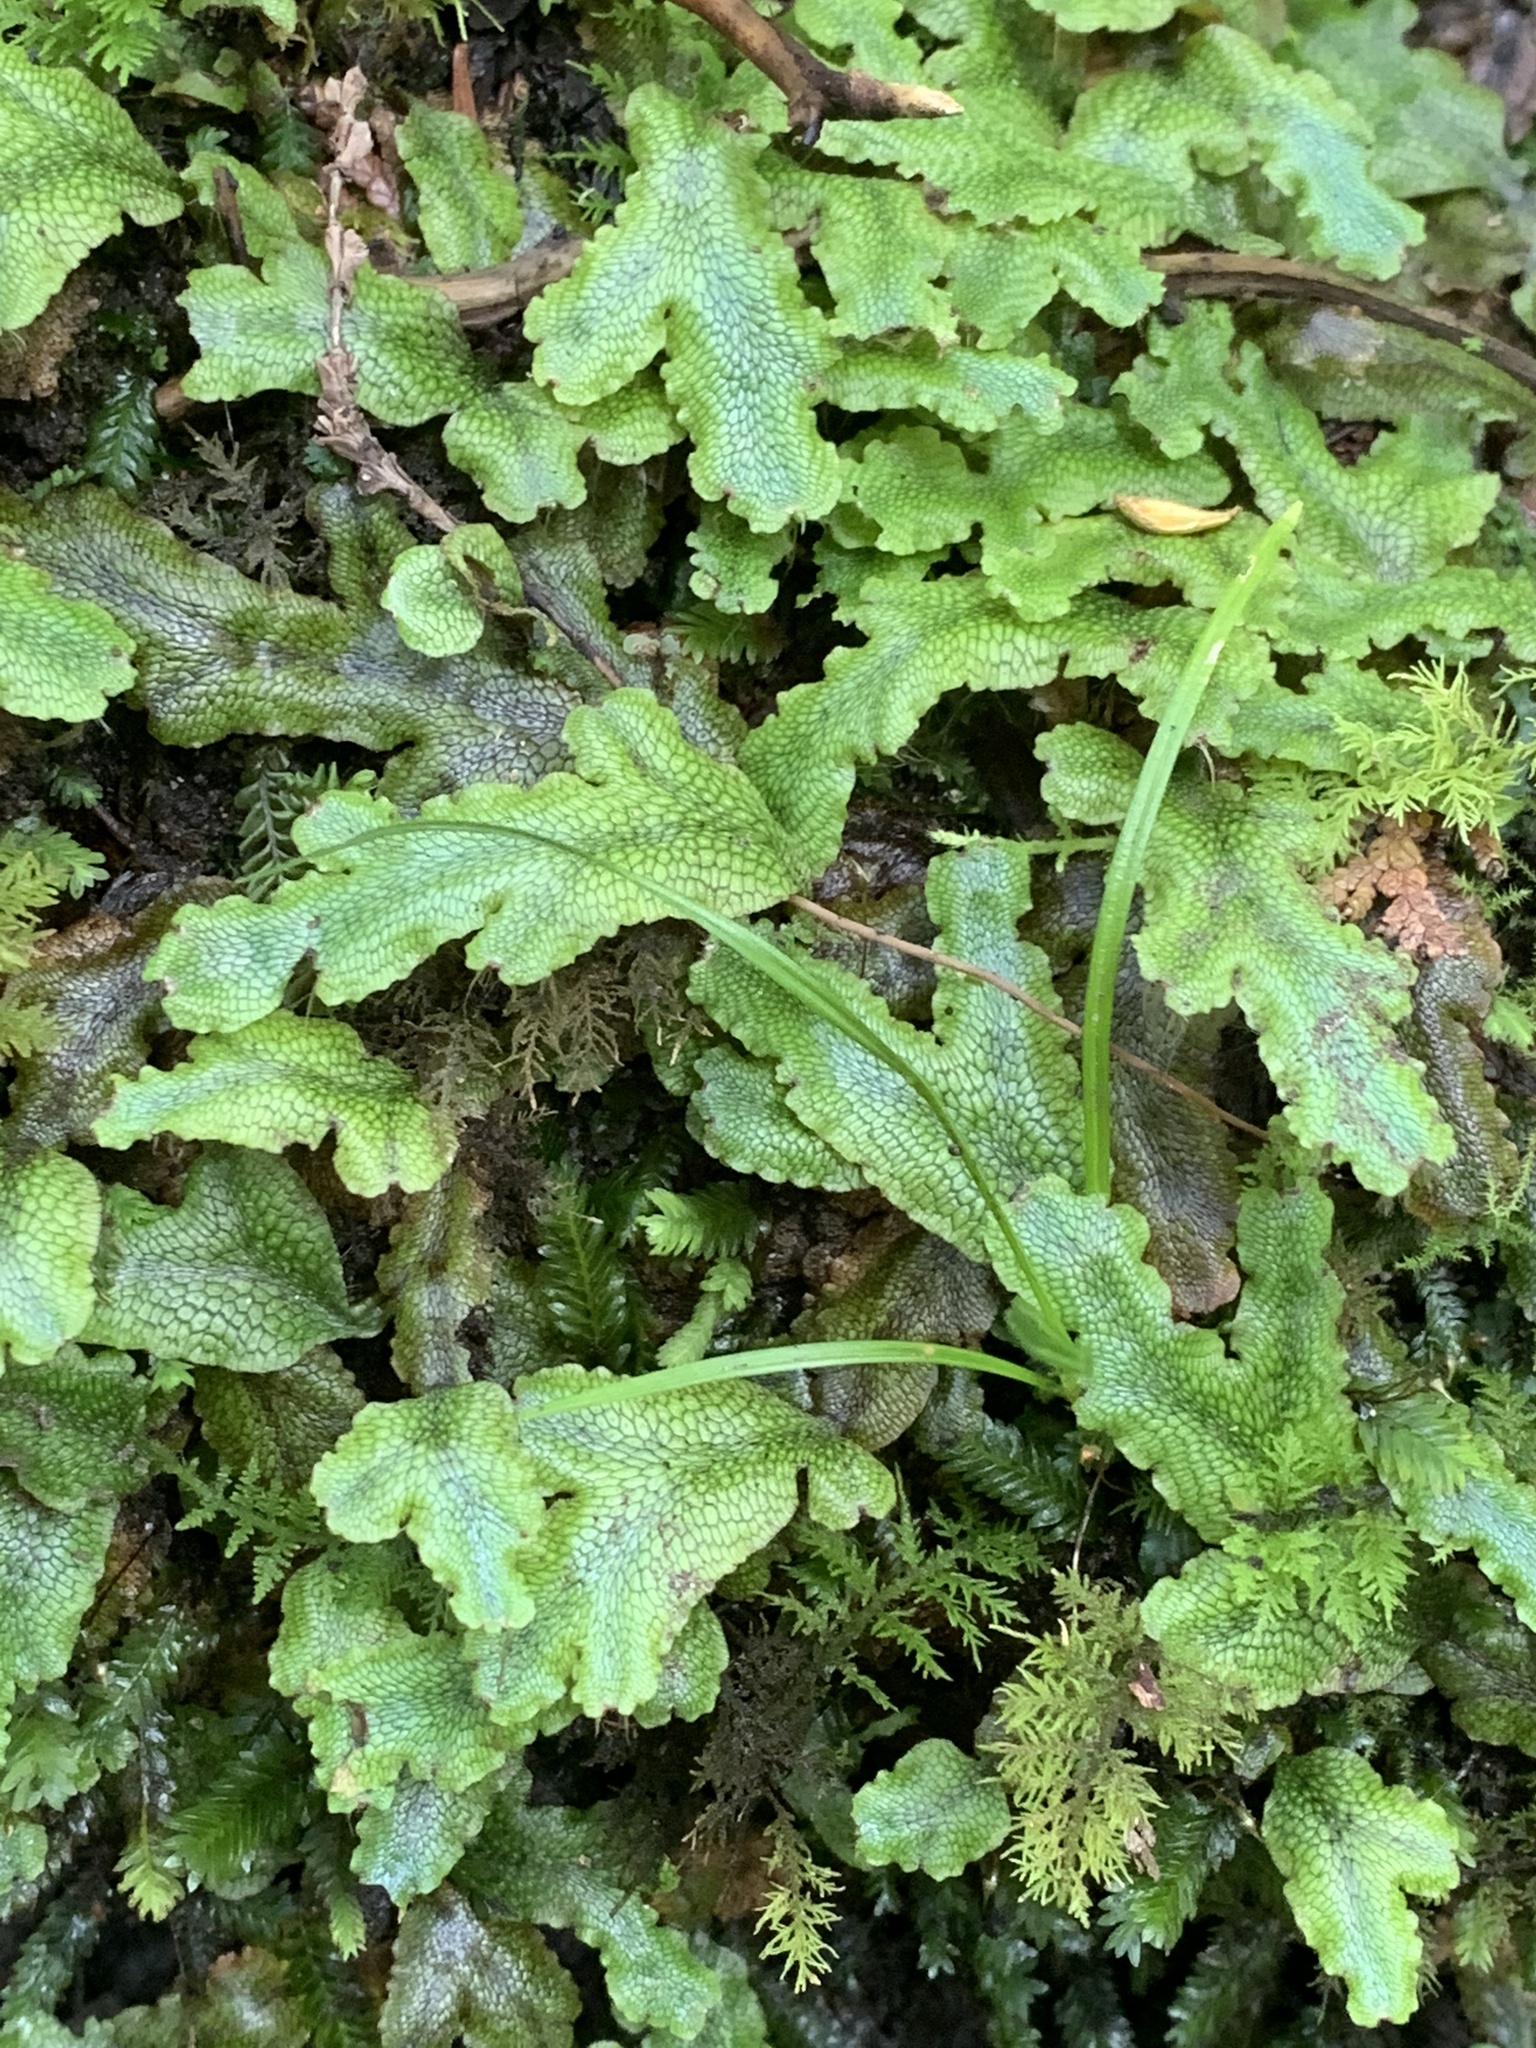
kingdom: Plantae
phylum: Marchantiophyta
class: Marchantiopsida
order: Marchantiales
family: Conocephalaceae
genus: Conocephalum
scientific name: Conocephalum salebrosum
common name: Cat-tongue liverwort
